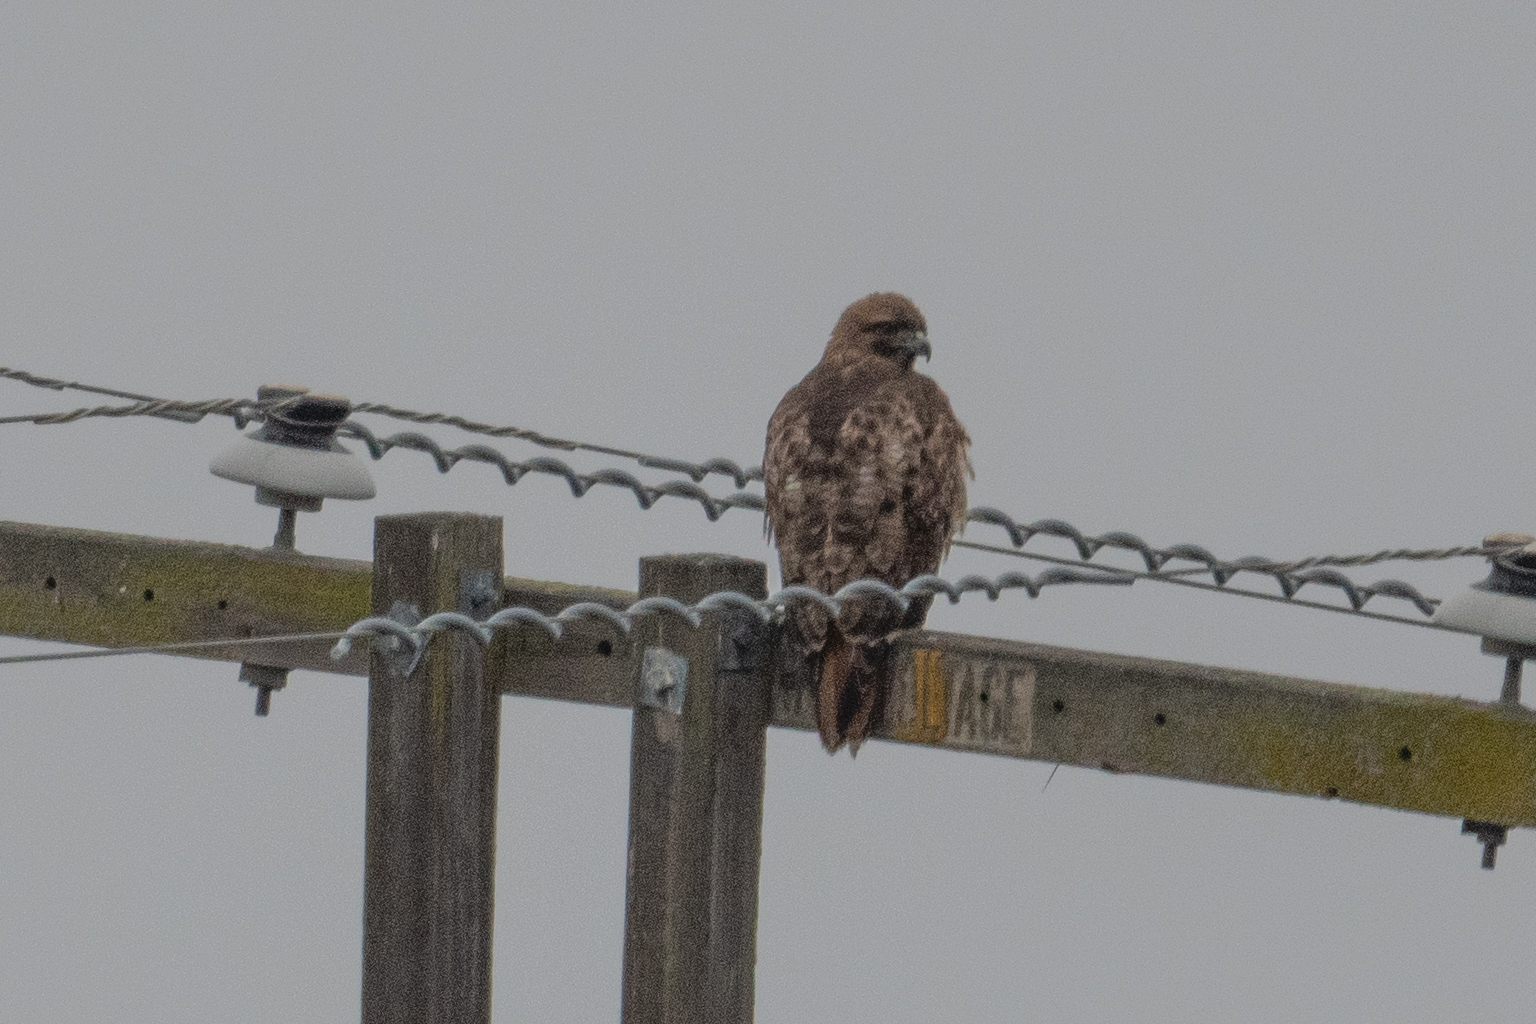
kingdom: Animalia
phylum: Chordata
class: Aves
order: Accipitriformes
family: Accipitridae
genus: Buteo
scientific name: Buteo jamaicensis
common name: Red-tailed hawk
